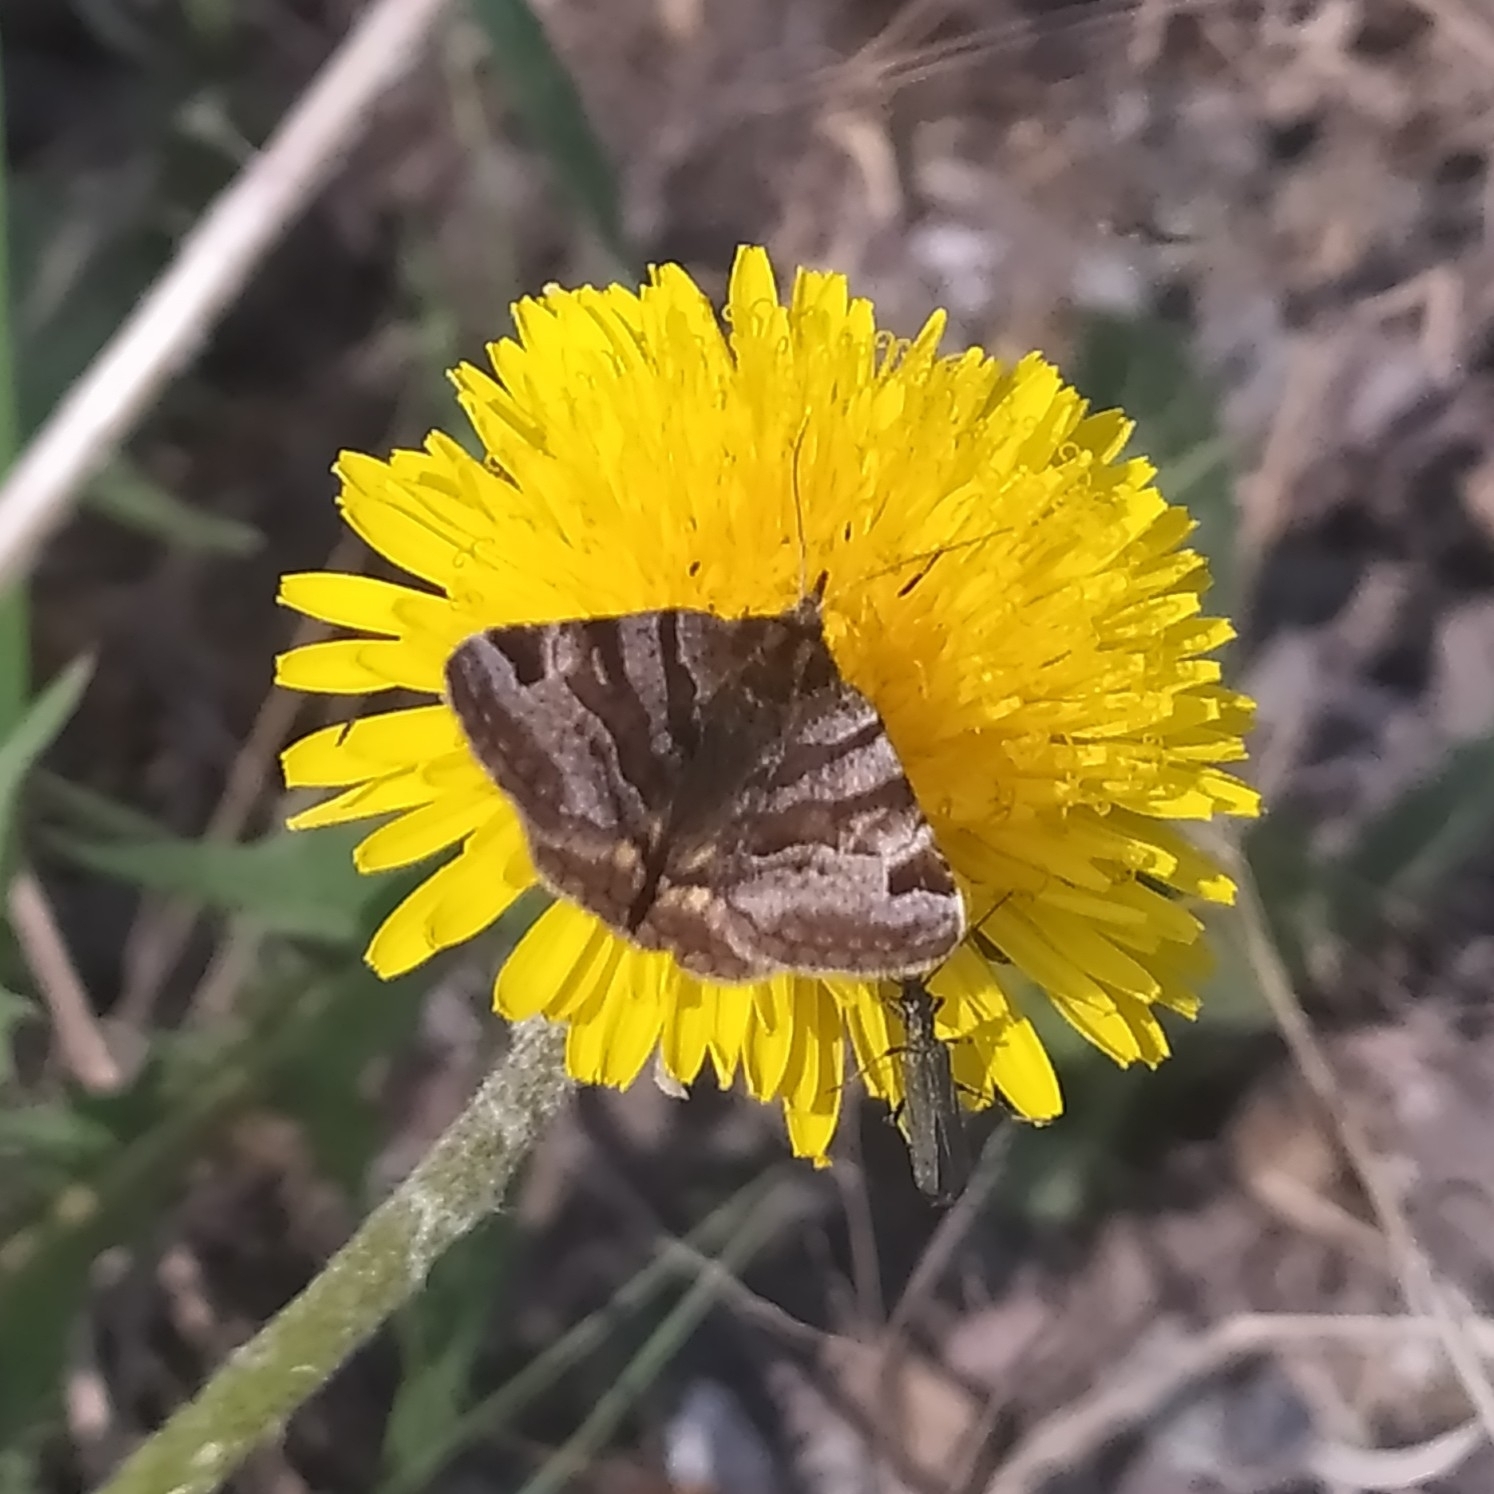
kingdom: Animalia
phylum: Arthropoda
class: Insecta
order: Lepidoptera
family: Erebidae
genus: Euclidia
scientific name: Euclidia glyphica
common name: Burnet companion
